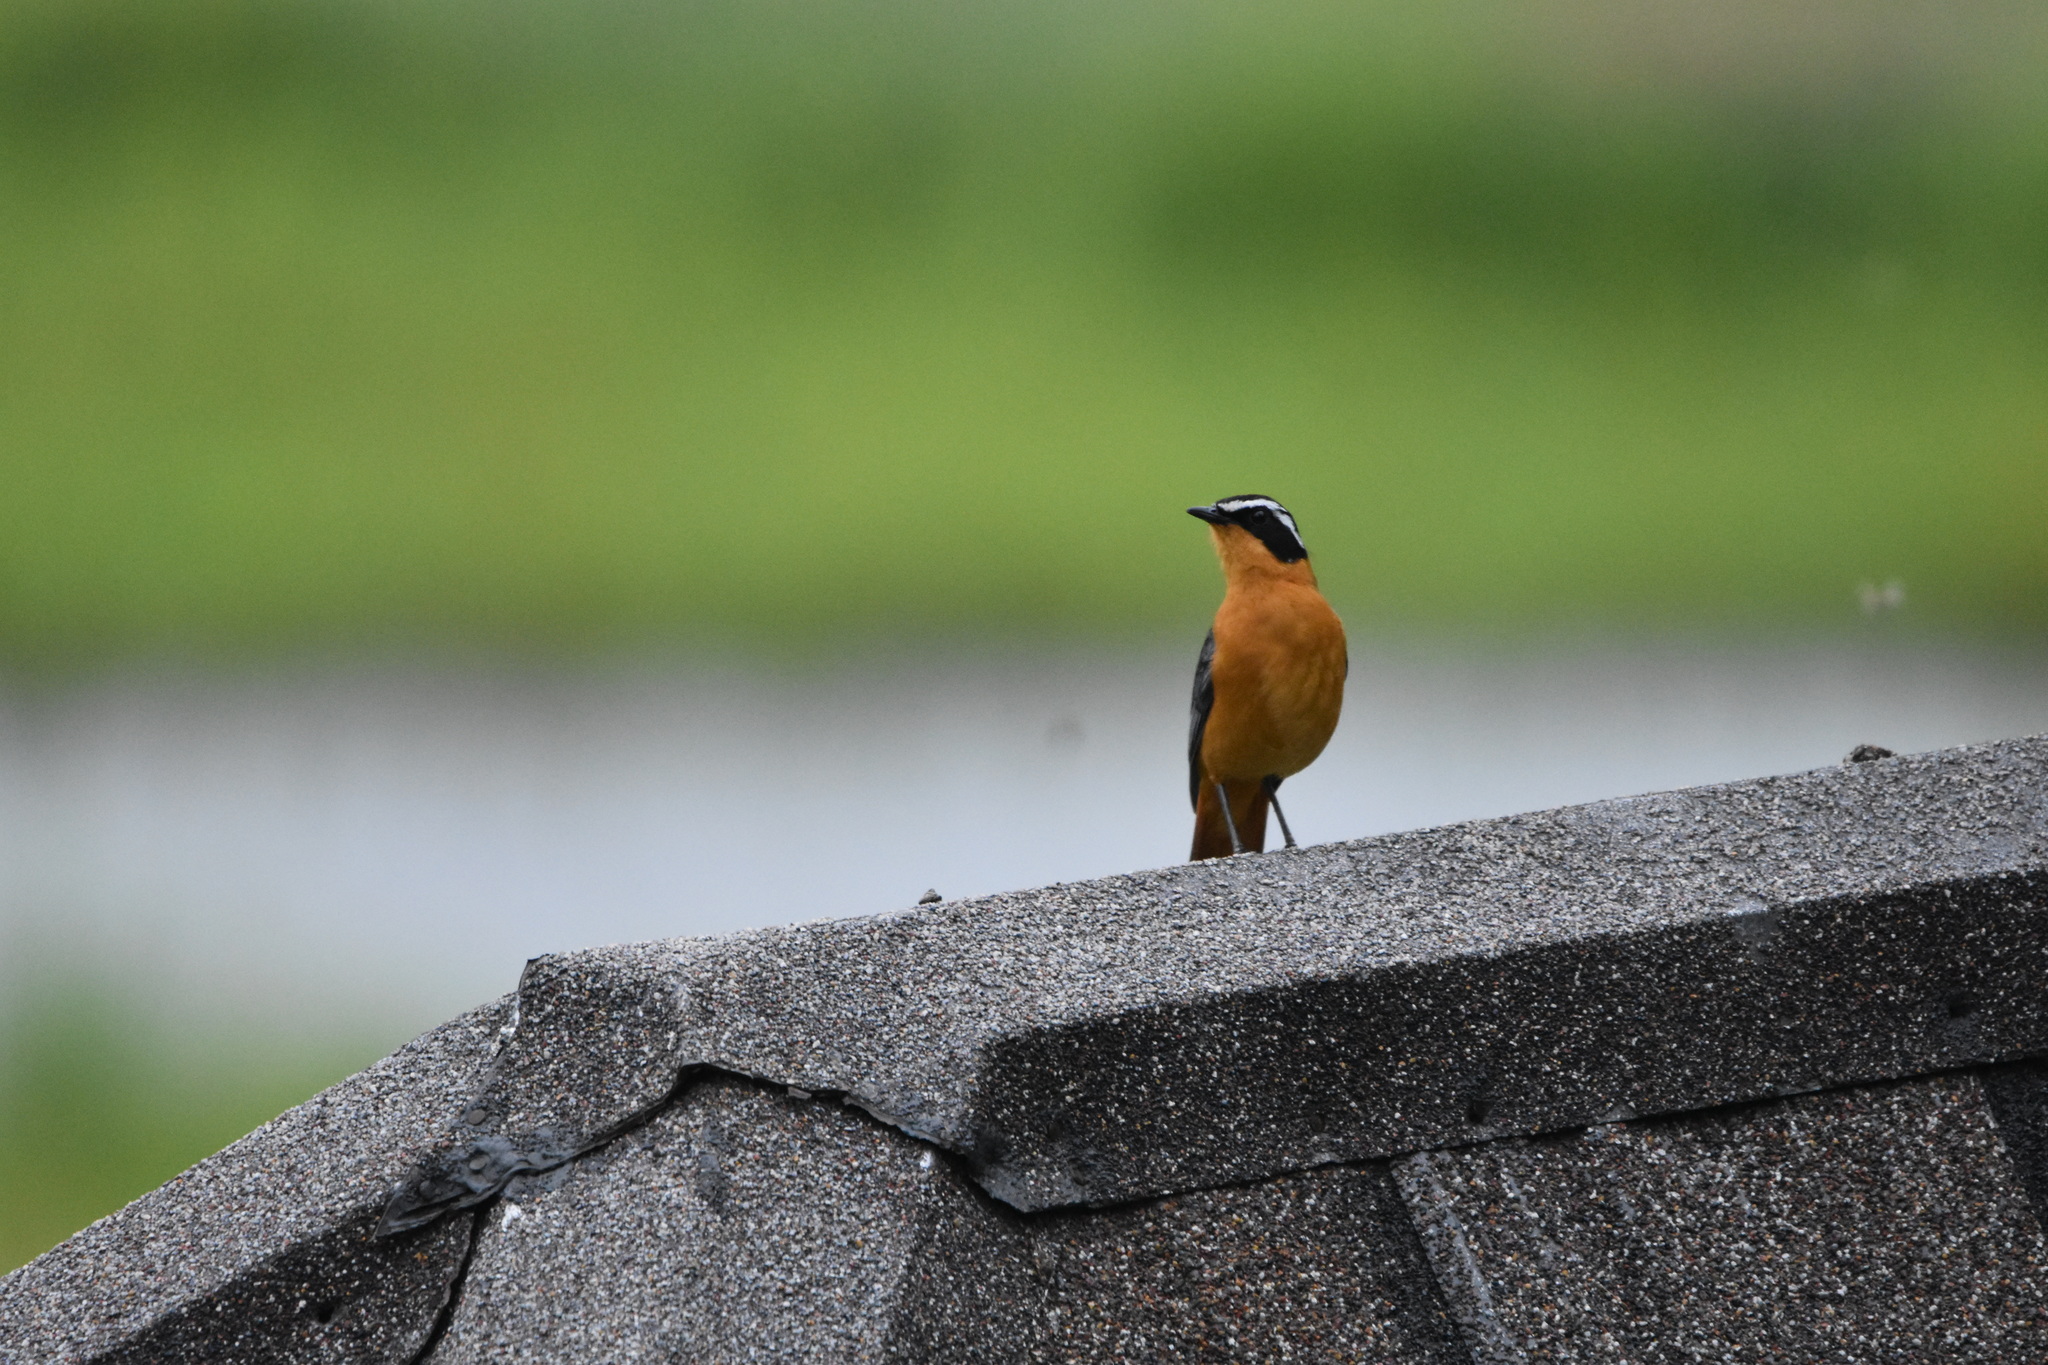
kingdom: Animalia
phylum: Chordata
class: Aves
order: Passeriformes
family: Muscicapidae
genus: Cossypha
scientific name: Cossypha heuglini
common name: White-browed robin-chat
